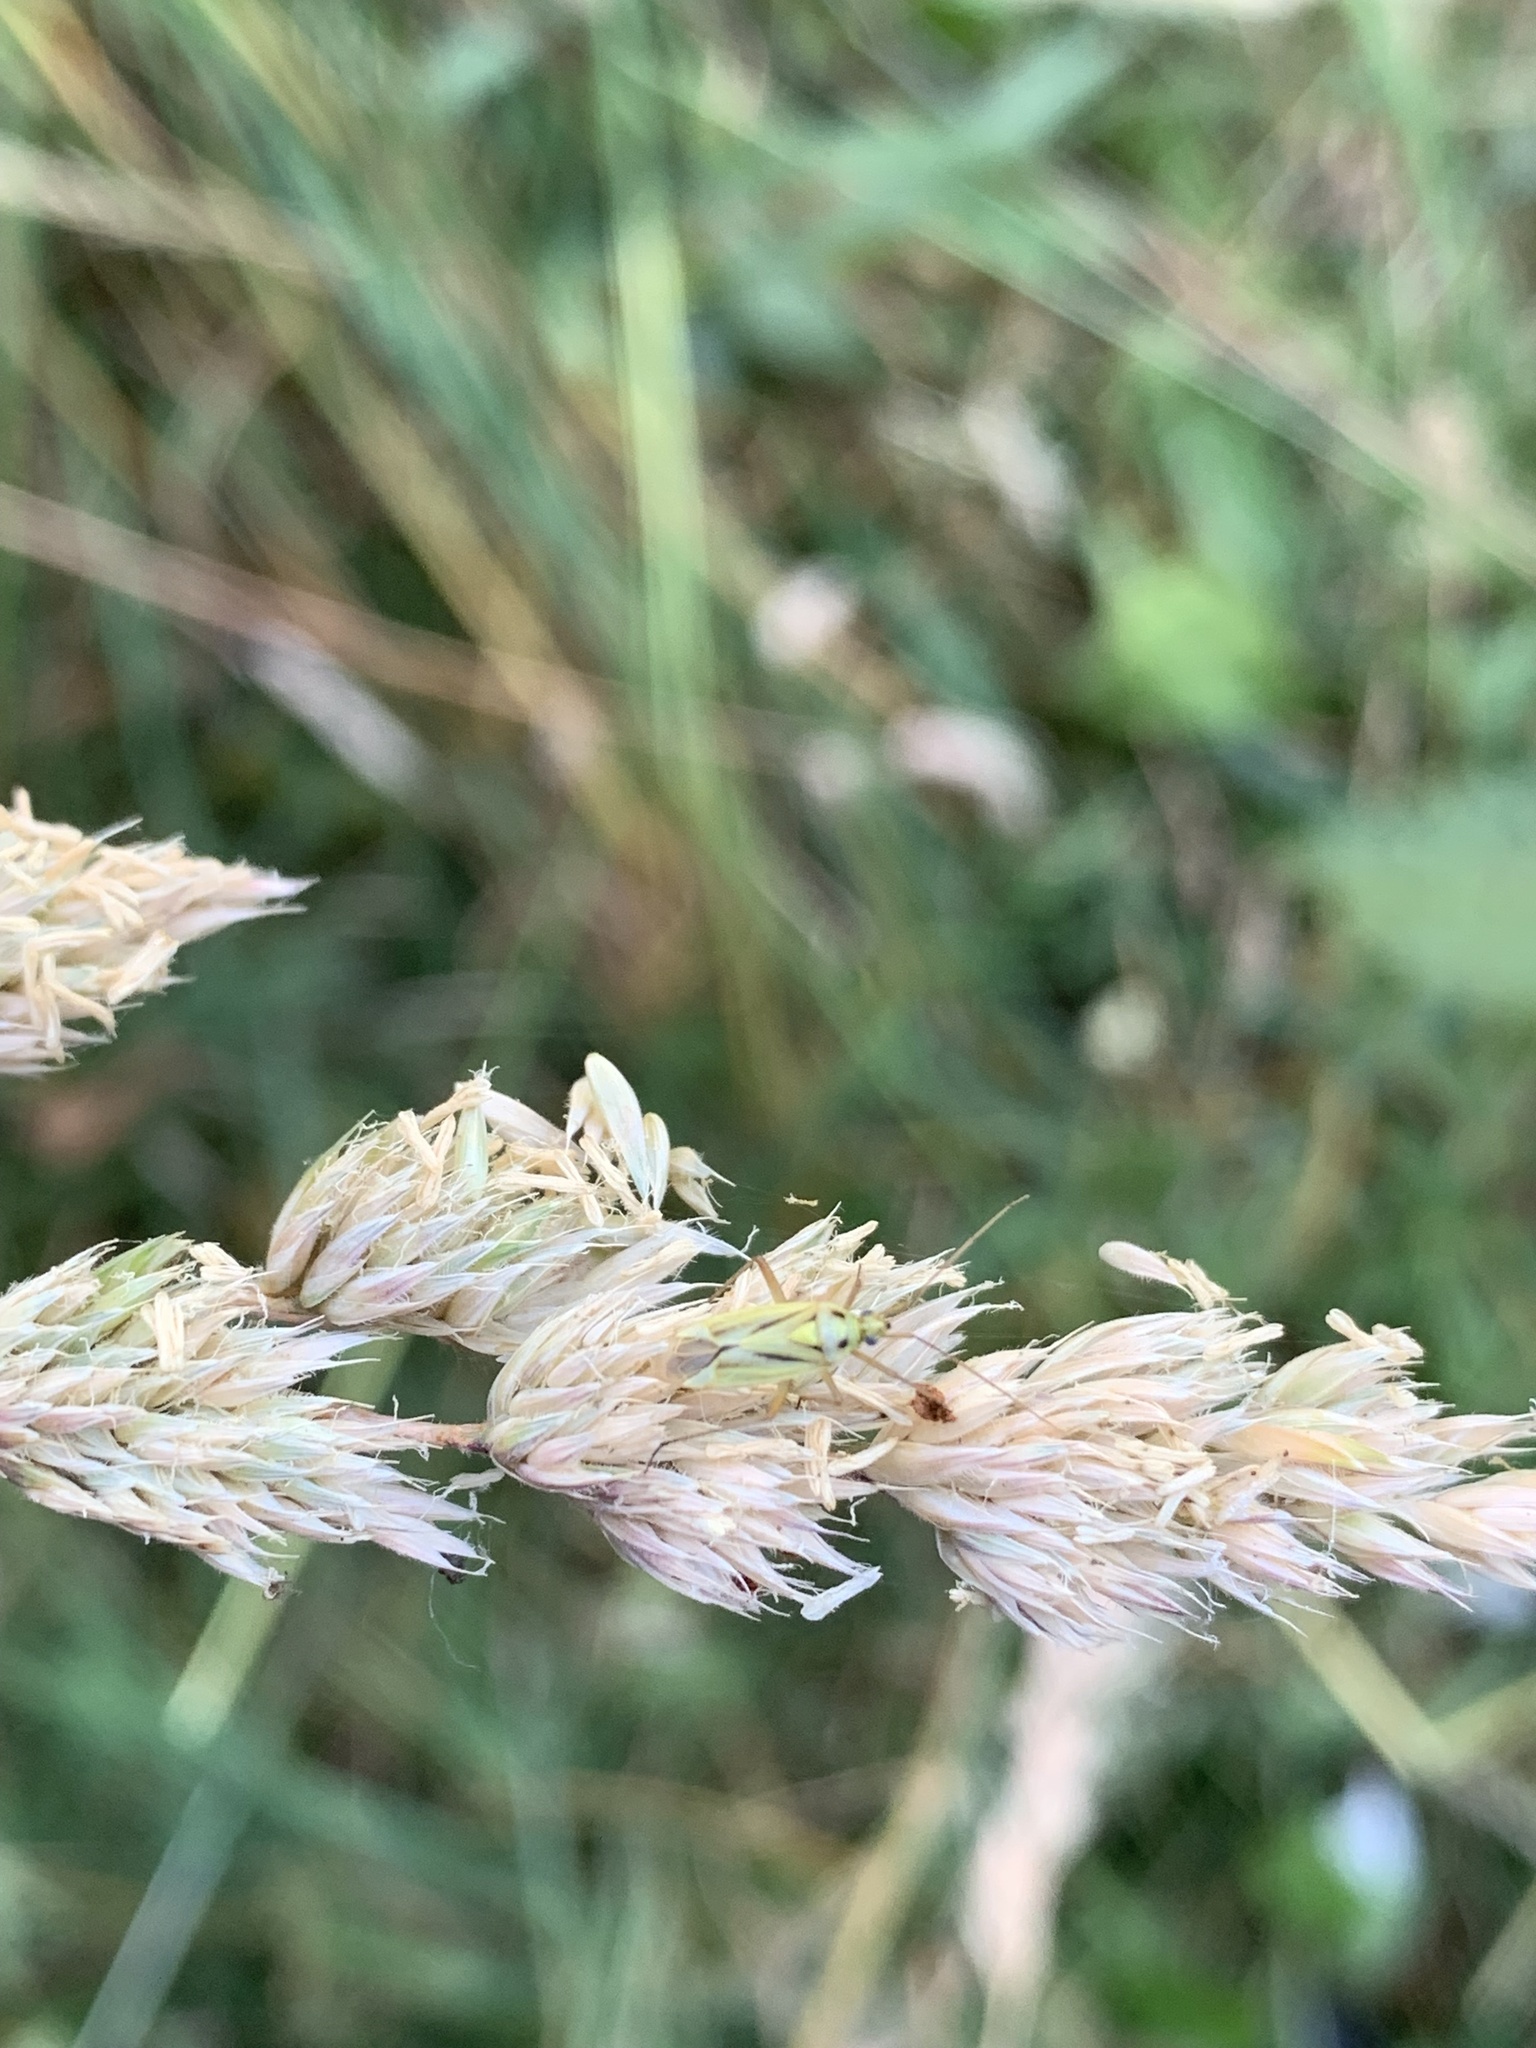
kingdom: Animalia
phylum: Arthropoda
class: Insecta
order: Hemiptera
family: Miridae
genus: Stenotus
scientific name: Stenotus binotatus
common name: Plant bug
